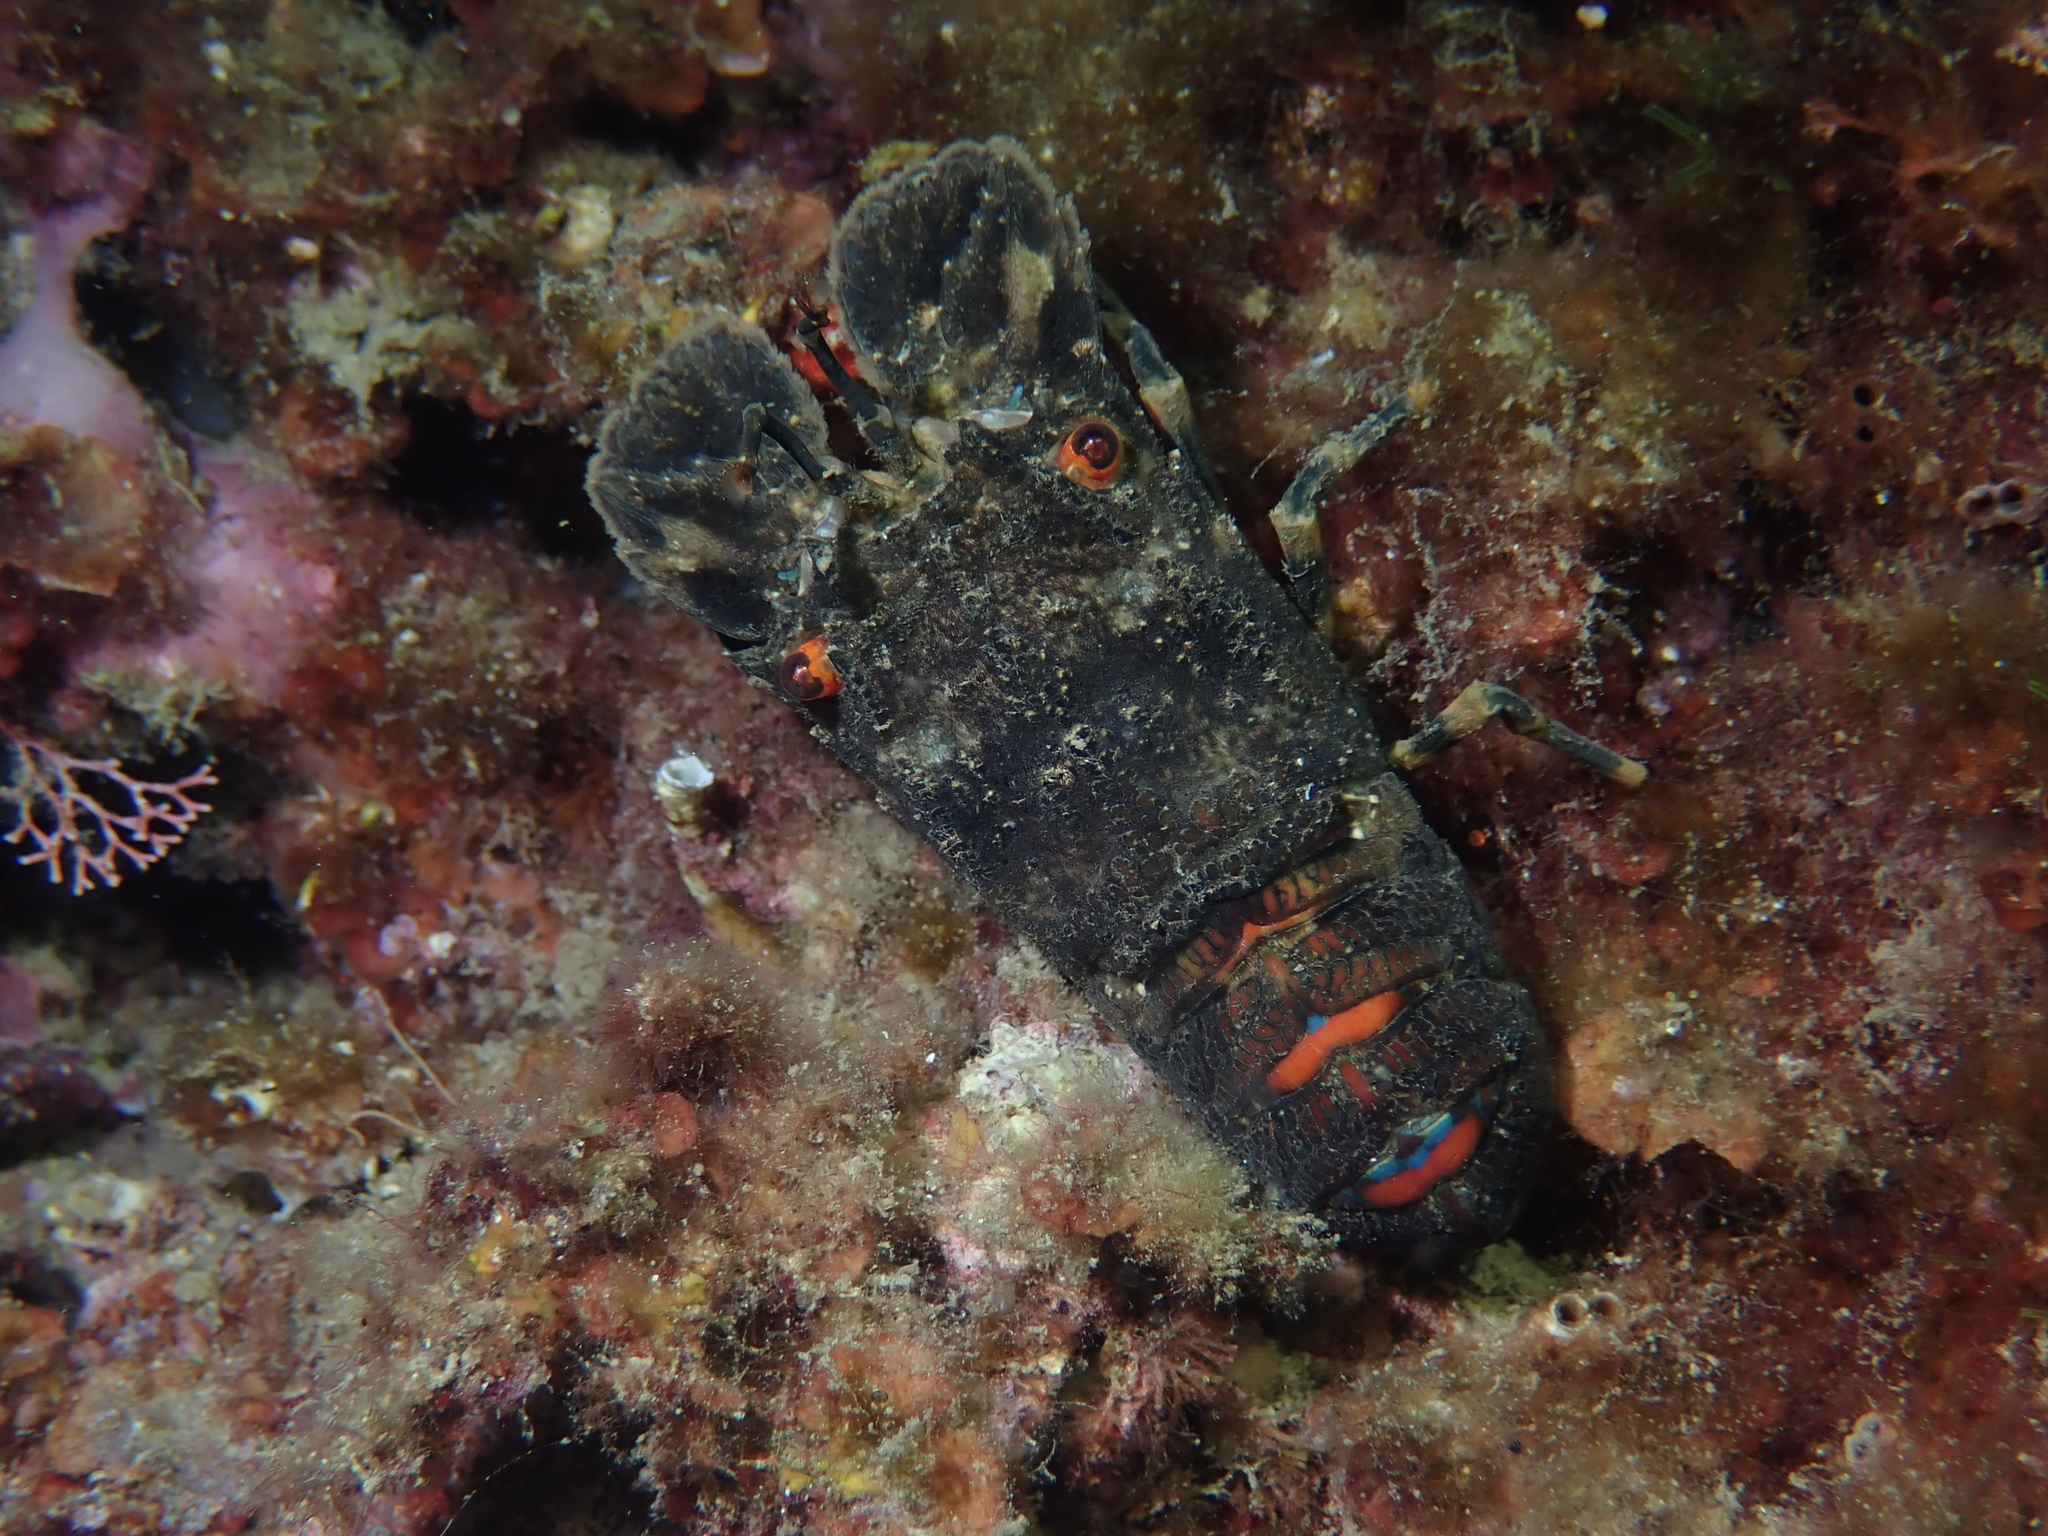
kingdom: Animalia
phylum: Arthropoda
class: Malacostraca
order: Decapoda
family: Scyllaridae
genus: Scyllarus
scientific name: Scyllarus arctus
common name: Small european locust lobster
